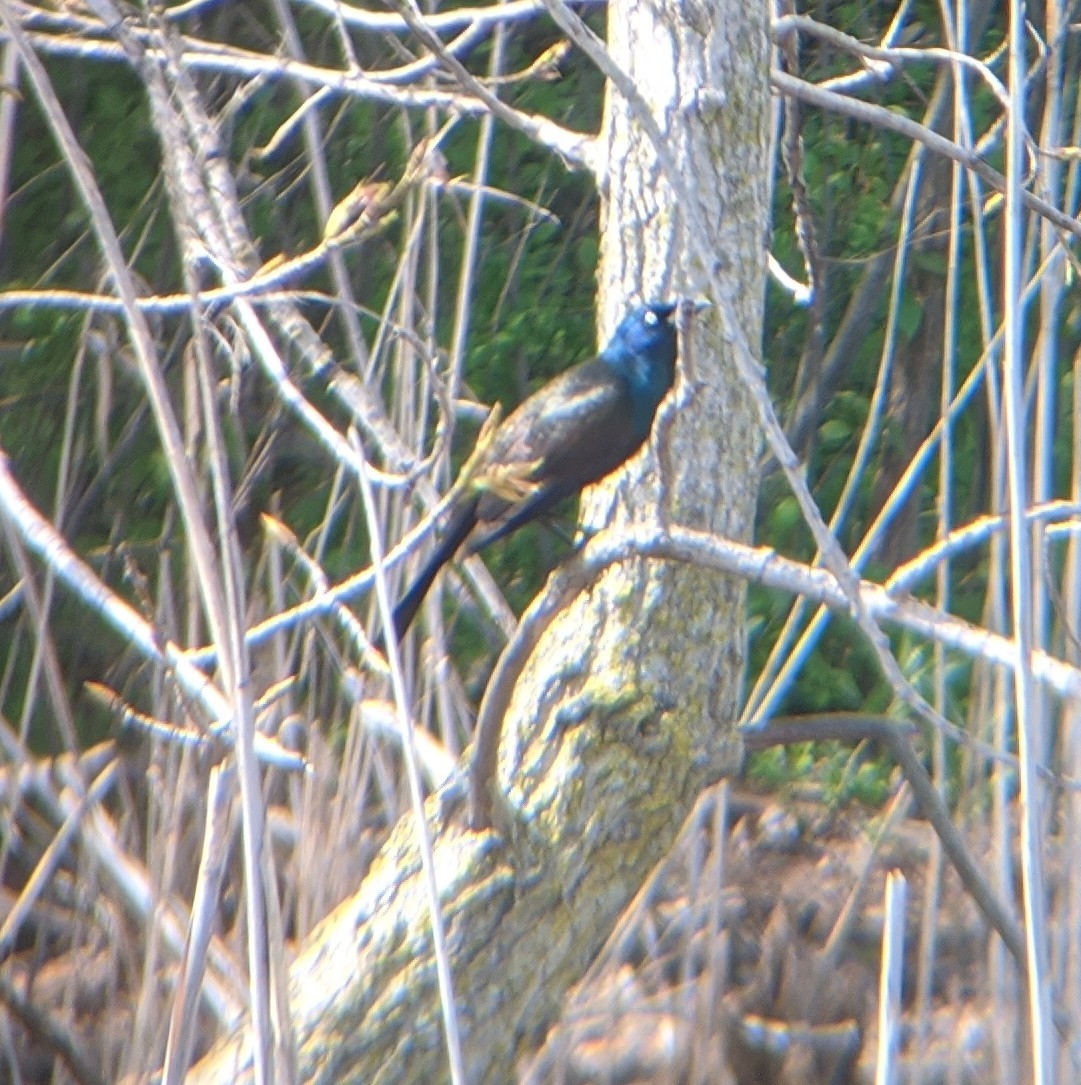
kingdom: Animalia
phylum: Chordata
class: Aves
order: Passeriformes
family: Icteridae
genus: Quiscalus
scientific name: Quiscalus quiscula
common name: Common grackle
